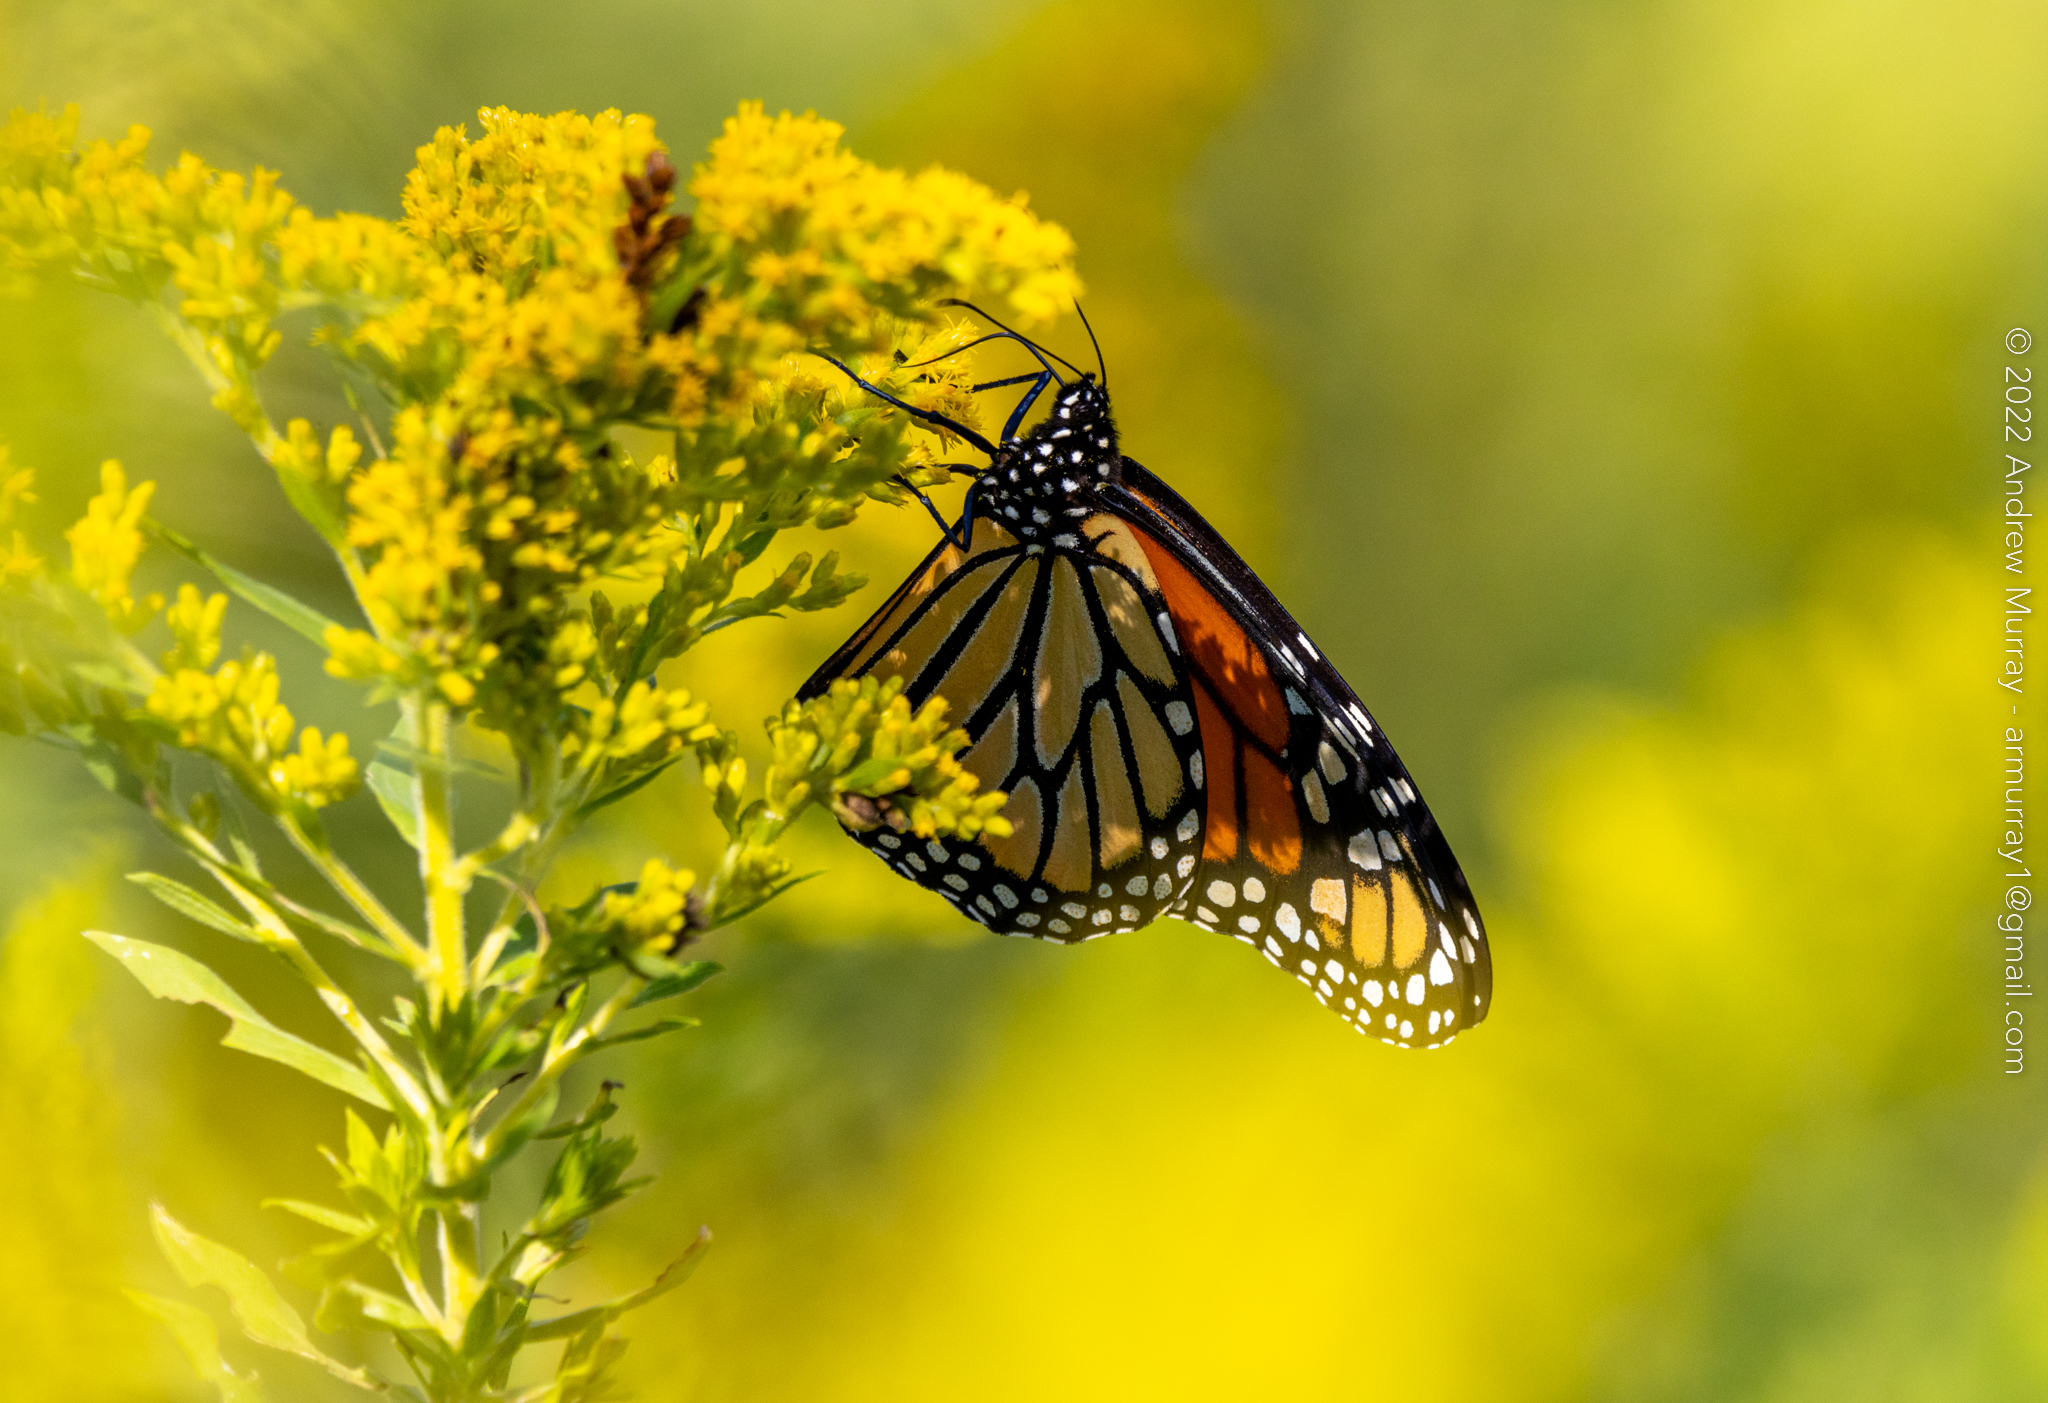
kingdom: Animalia
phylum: Arthropoda
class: Insecta
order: Lepidoptera
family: Nymphalidae
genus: Danaus
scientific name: Danaus plexippus
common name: Monarch
